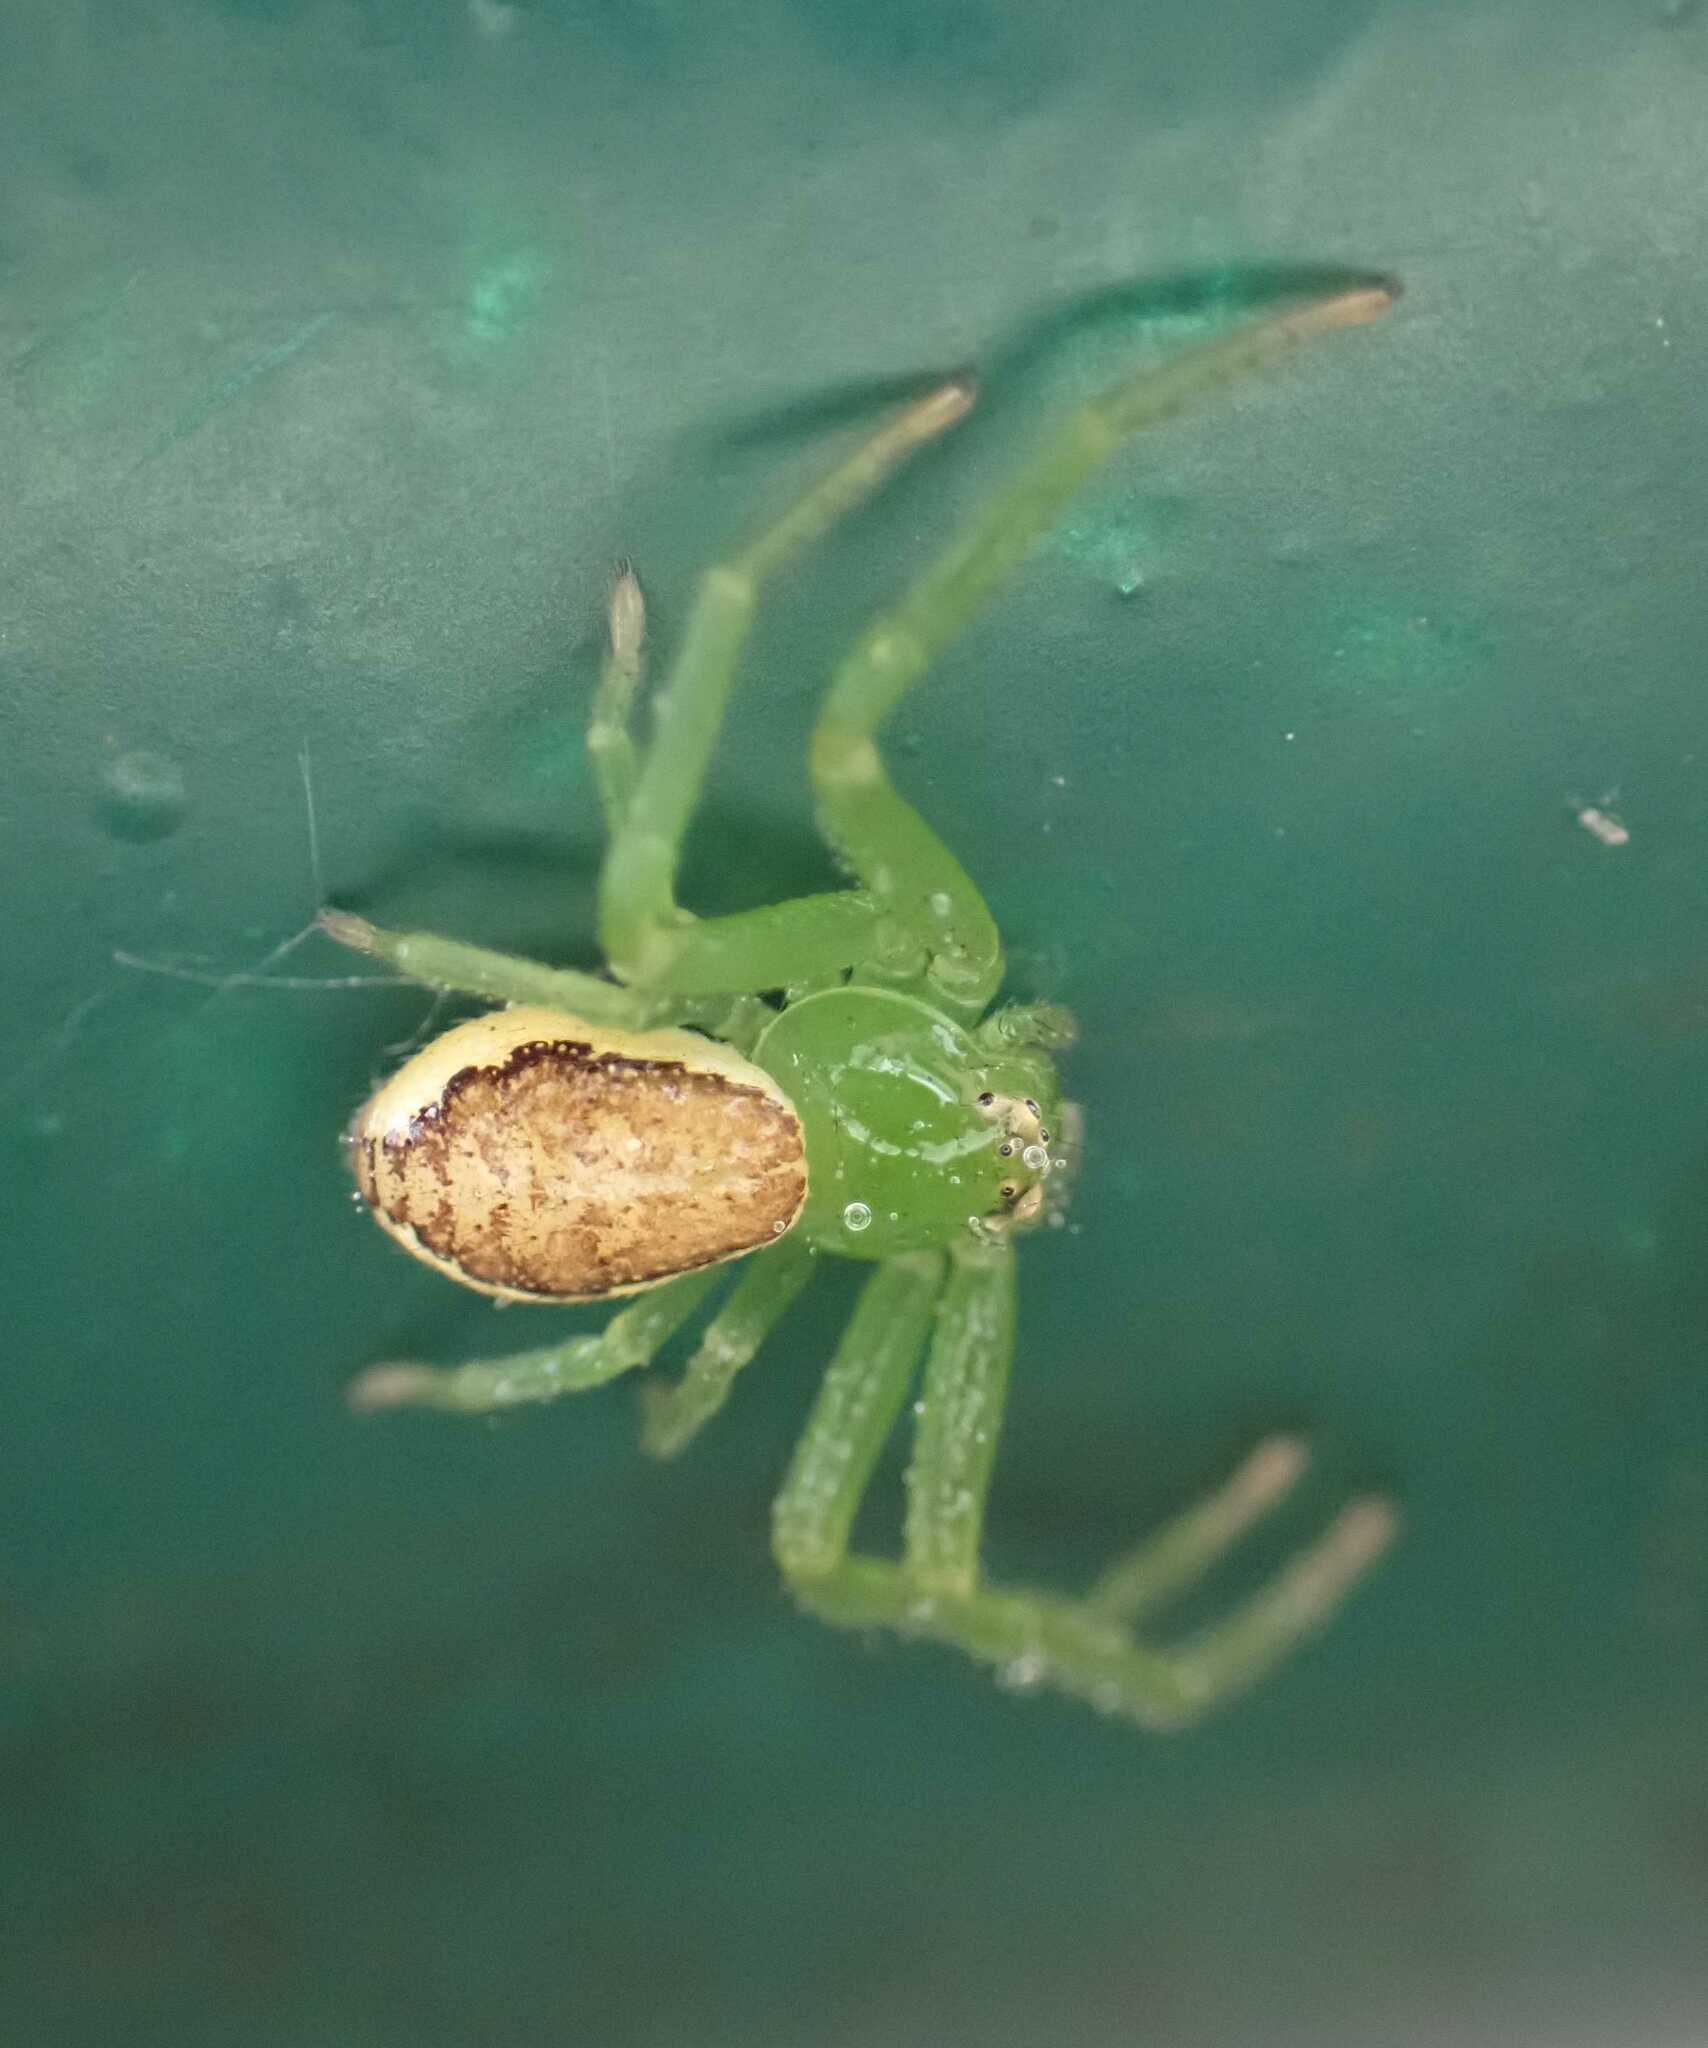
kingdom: Animalia
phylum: Arthropoda
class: Arachnida
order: Araneae
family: Thomisidae
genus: Diaea
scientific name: Diaea dorsata
